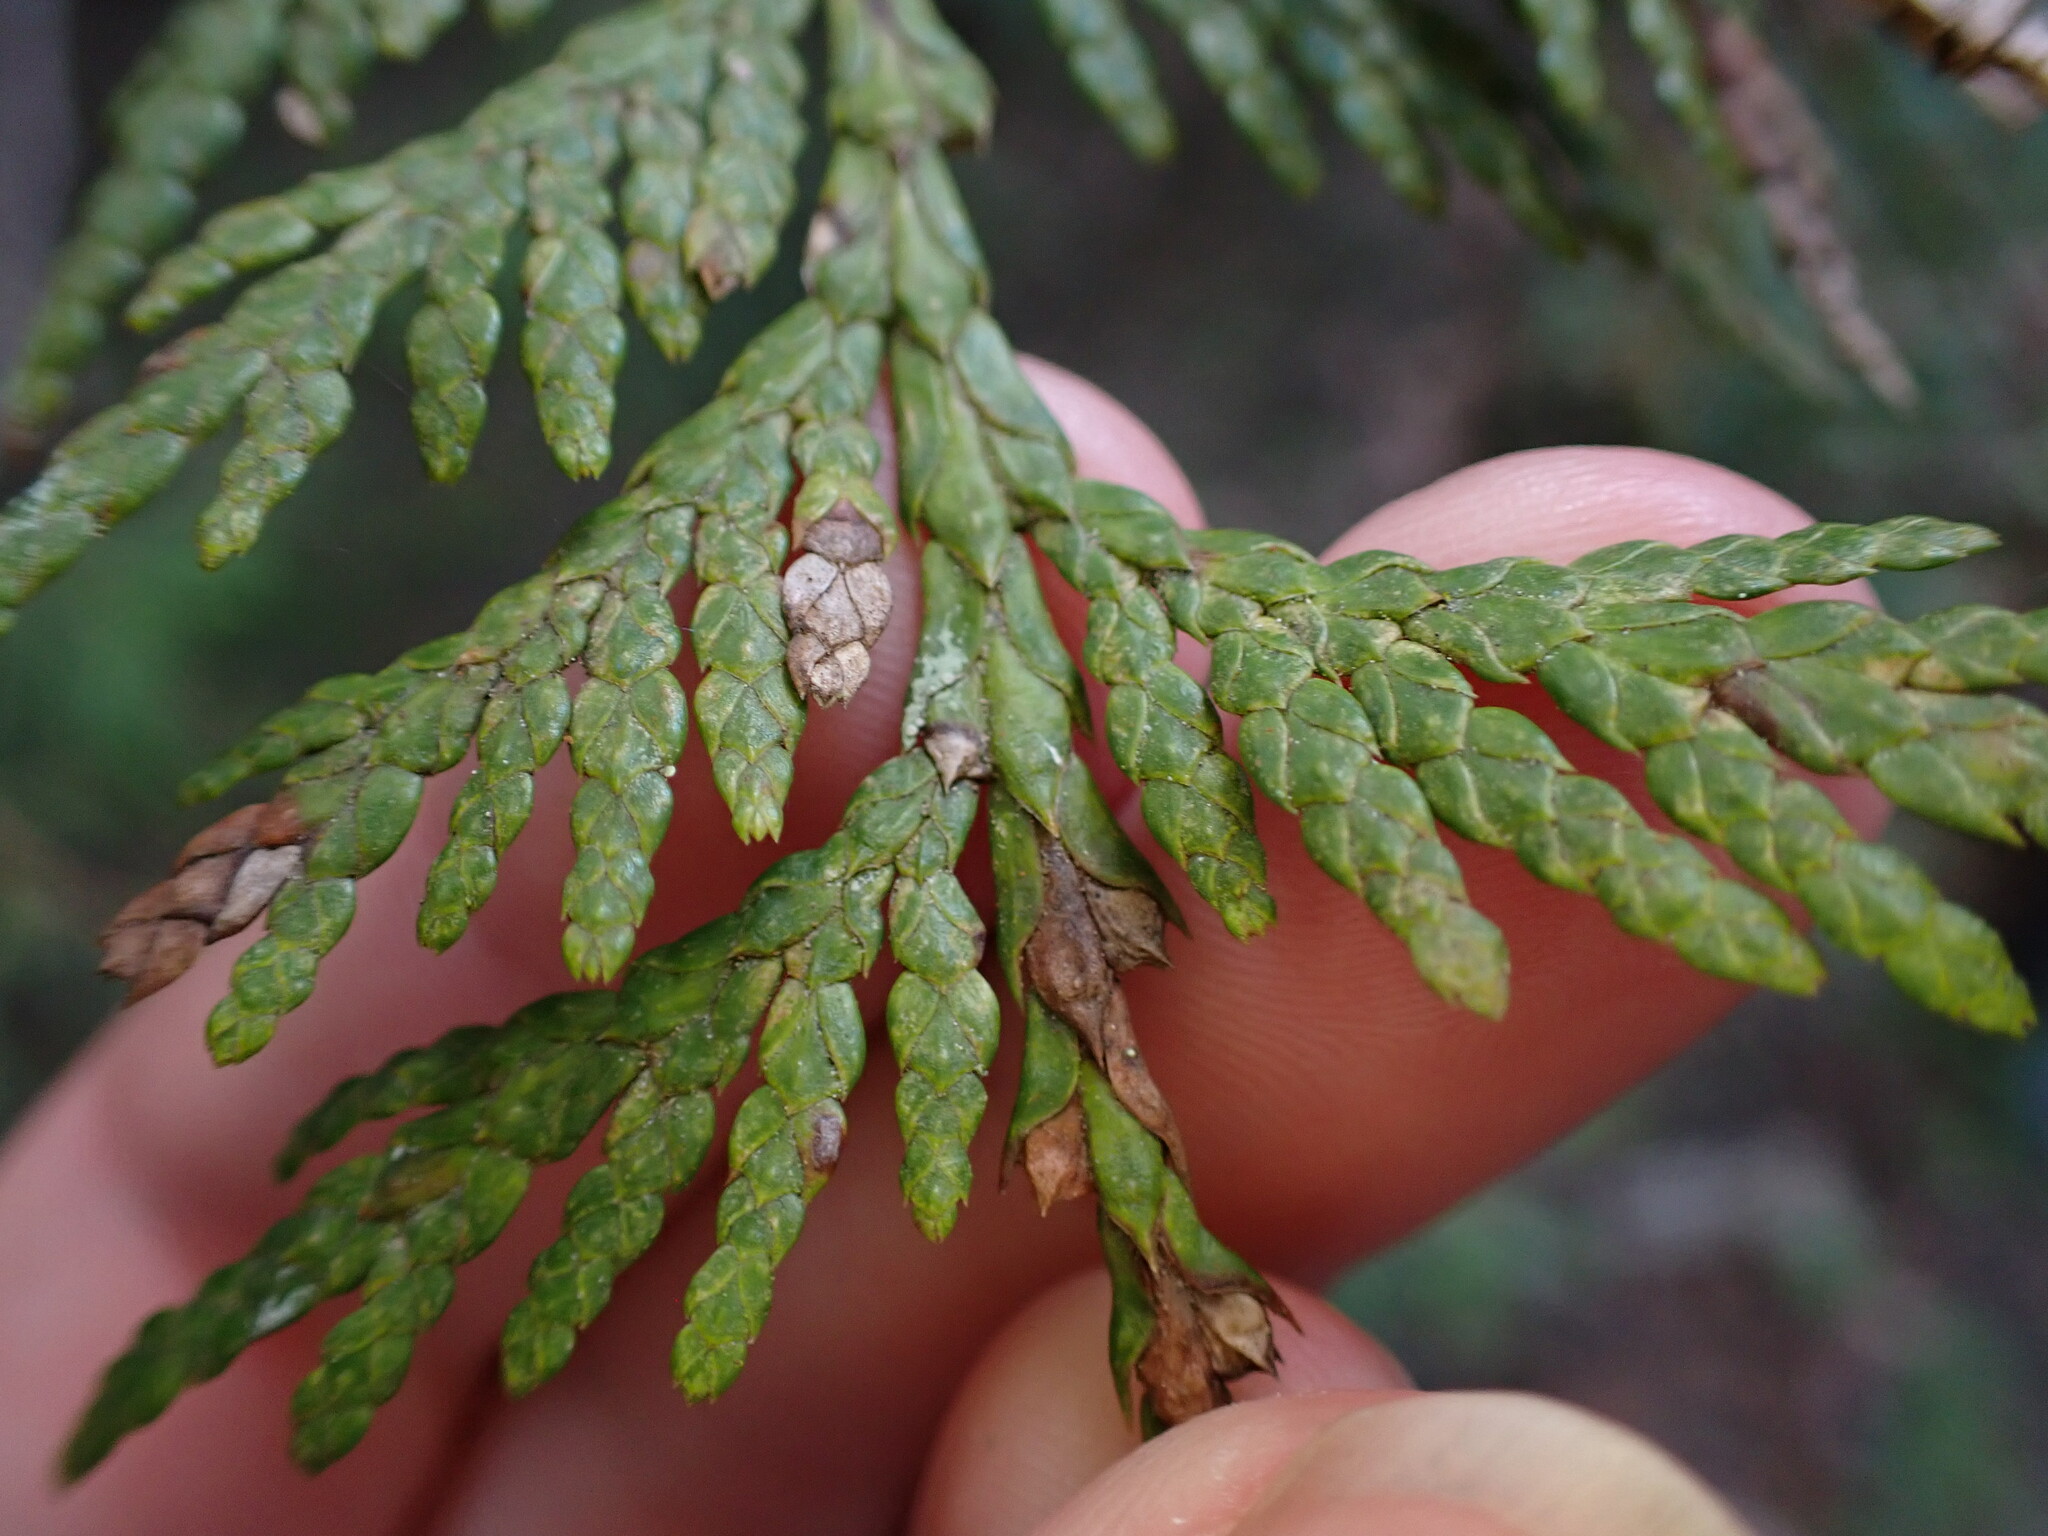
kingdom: Plantae
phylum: Tracheophyta
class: Pinopsida
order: Pinales
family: Cupressaceae
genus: Thuja
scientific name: Thuja plicata
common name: Western red-cedar
